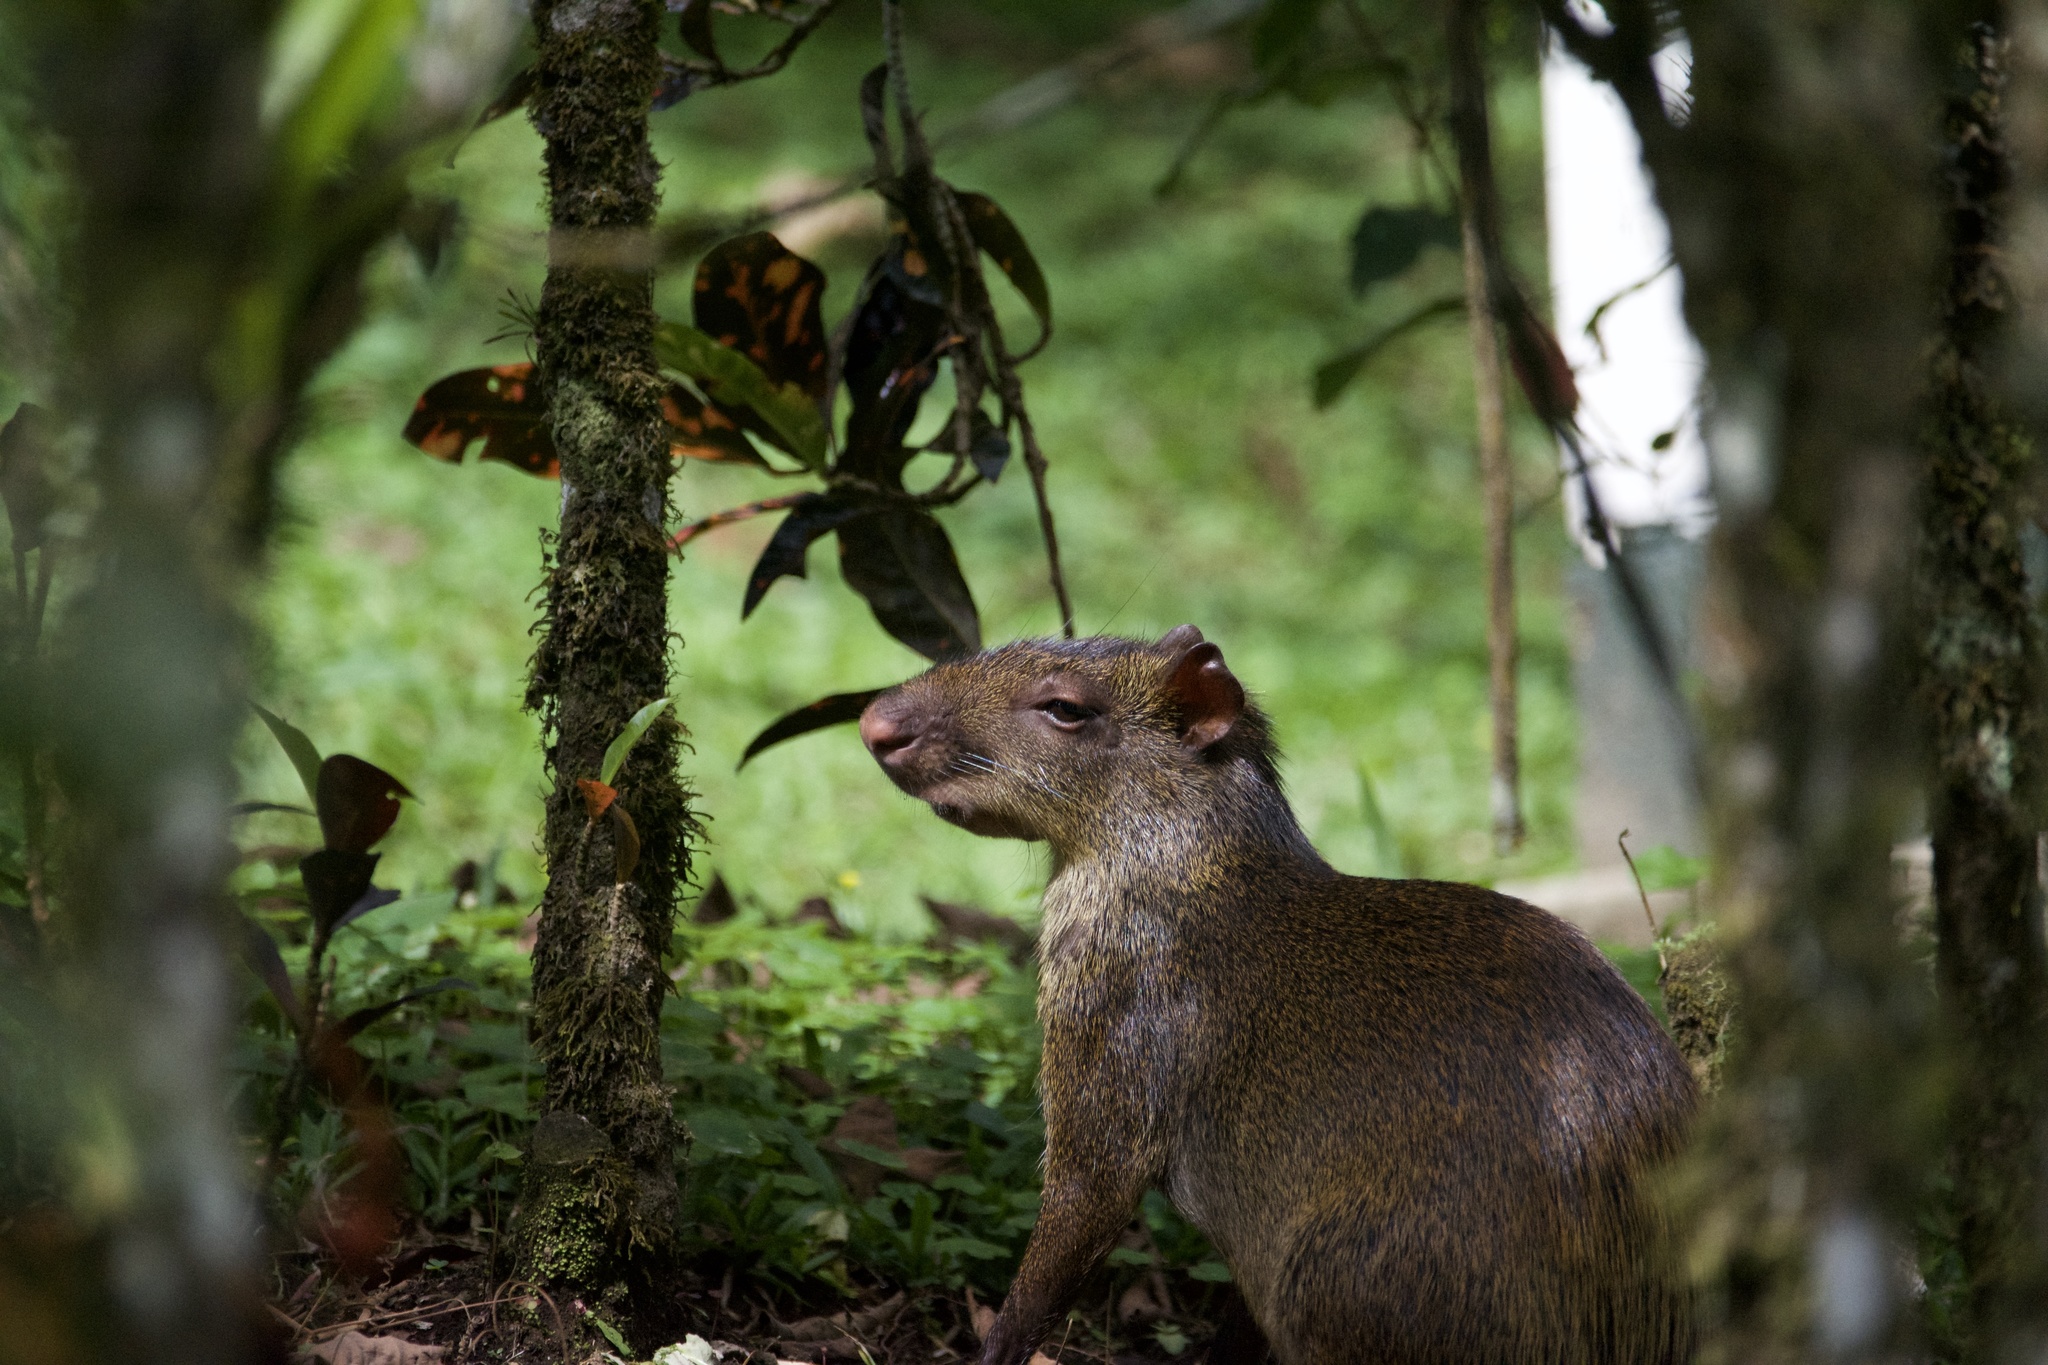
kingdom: Animalia
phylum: Chordata
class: Mammalia
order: Rodentia
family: Dasyproctidae
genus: Dasyprocta
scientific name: Dasyprocta punctata
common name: Central american agouti
